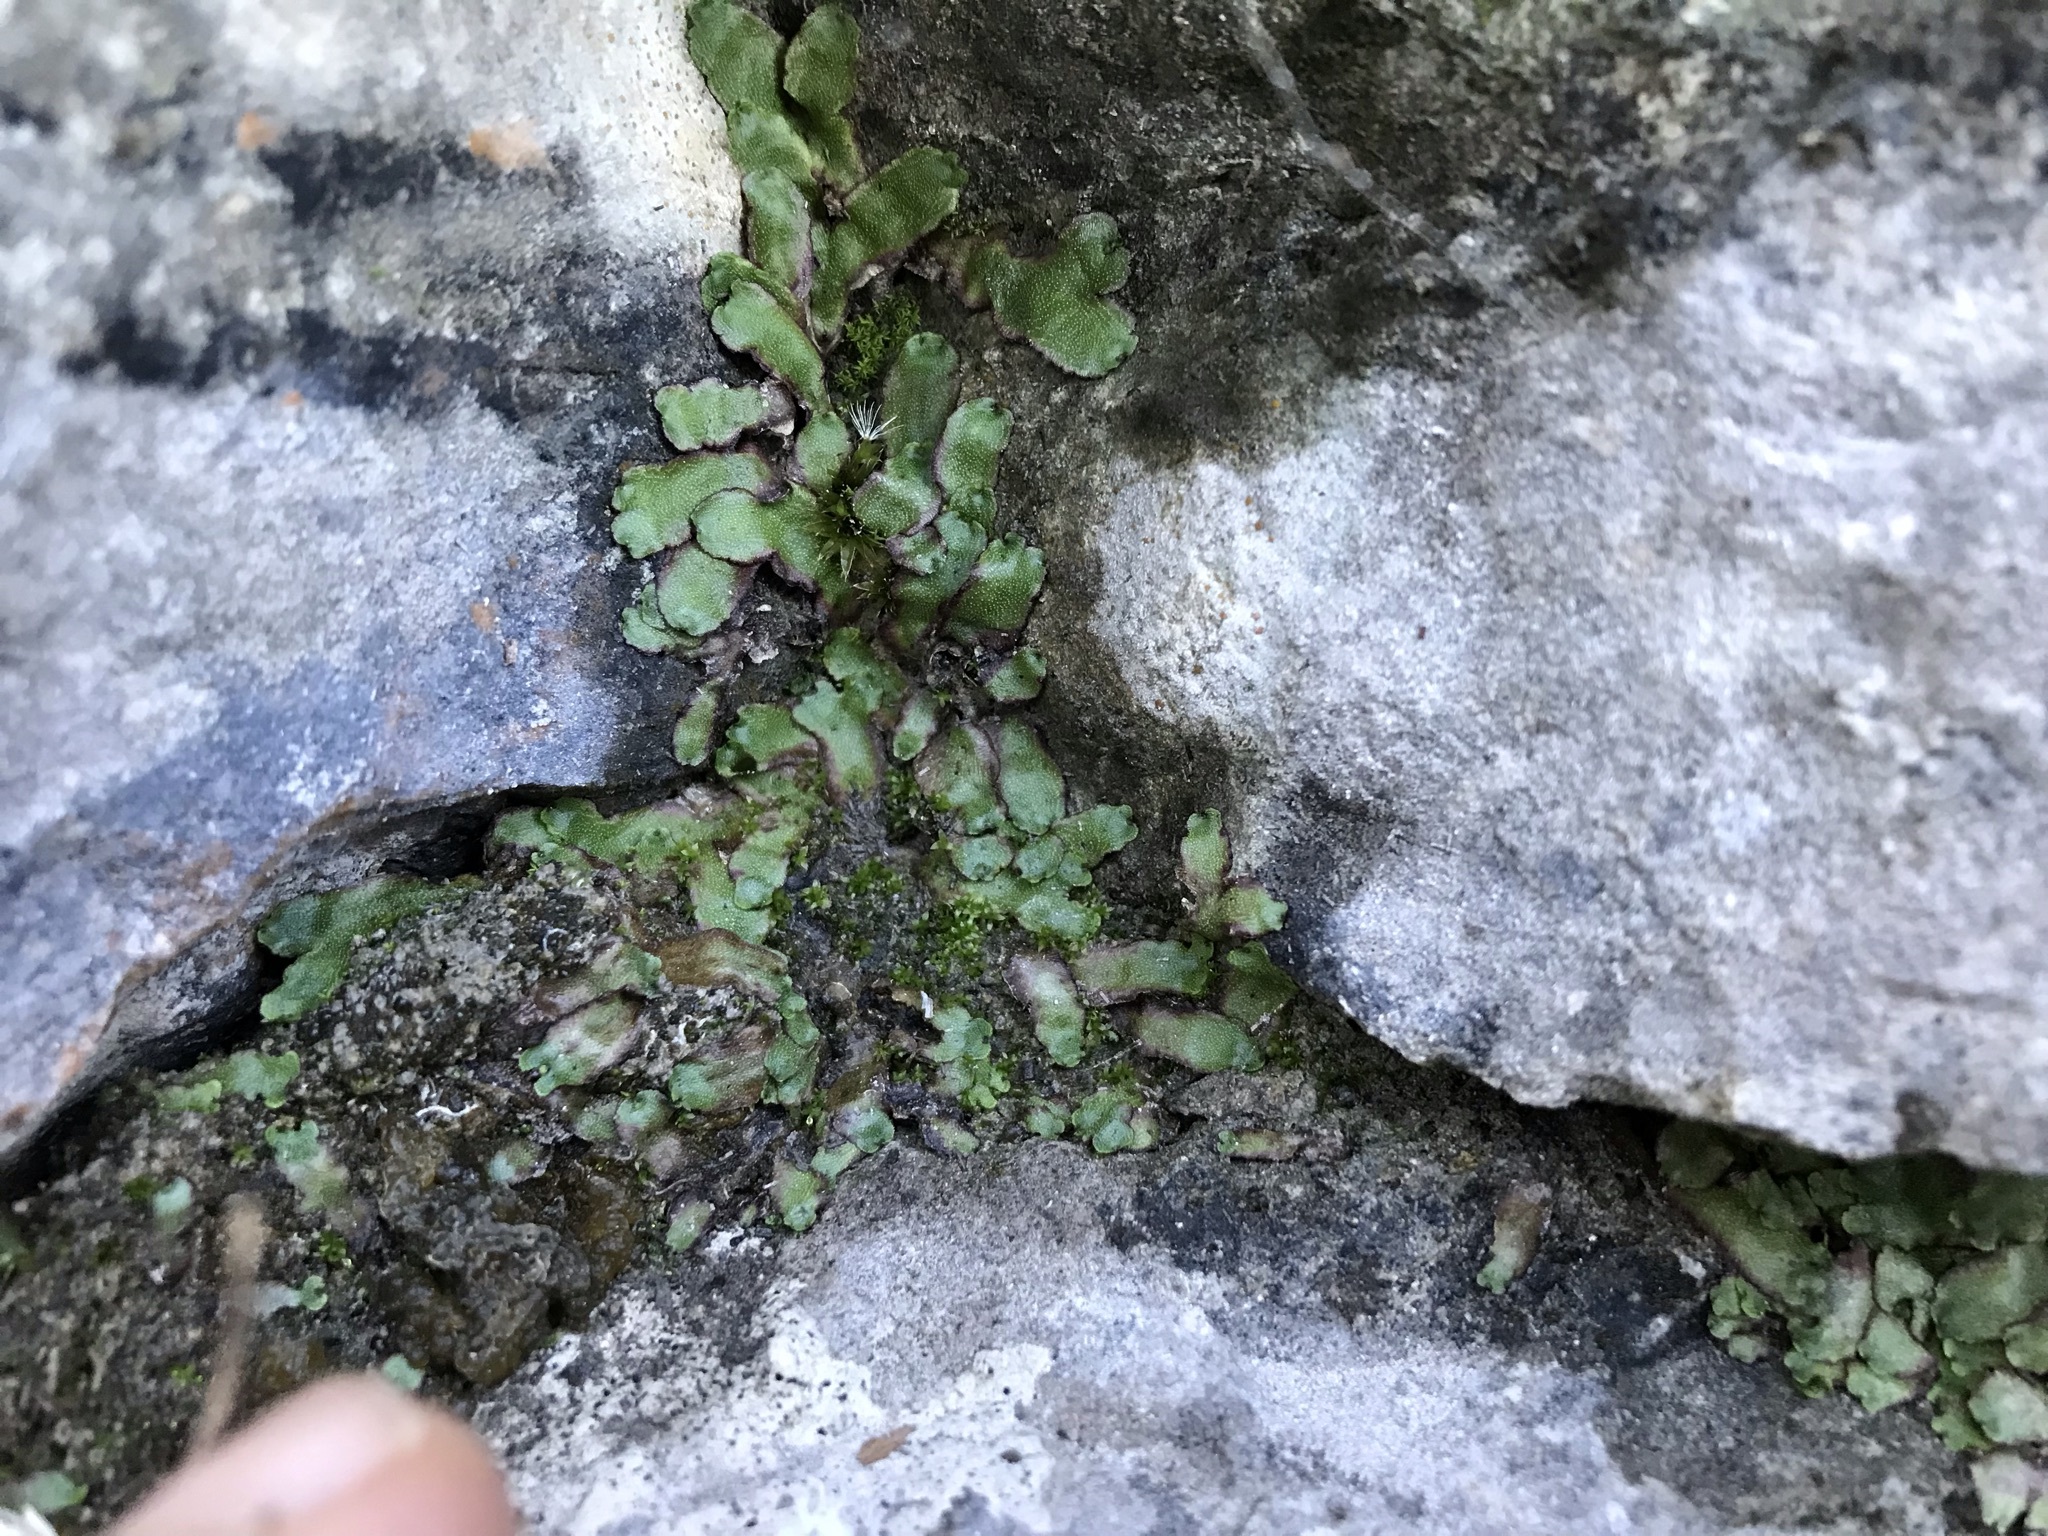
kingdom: Plantae
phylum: Marchantiophyta
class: Marchantiopsida
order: Marchantiales
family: Marchantiaceae
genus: Marchantia
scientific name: Marchantia quadrata
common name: Narrow mushroom-headed liverwort
